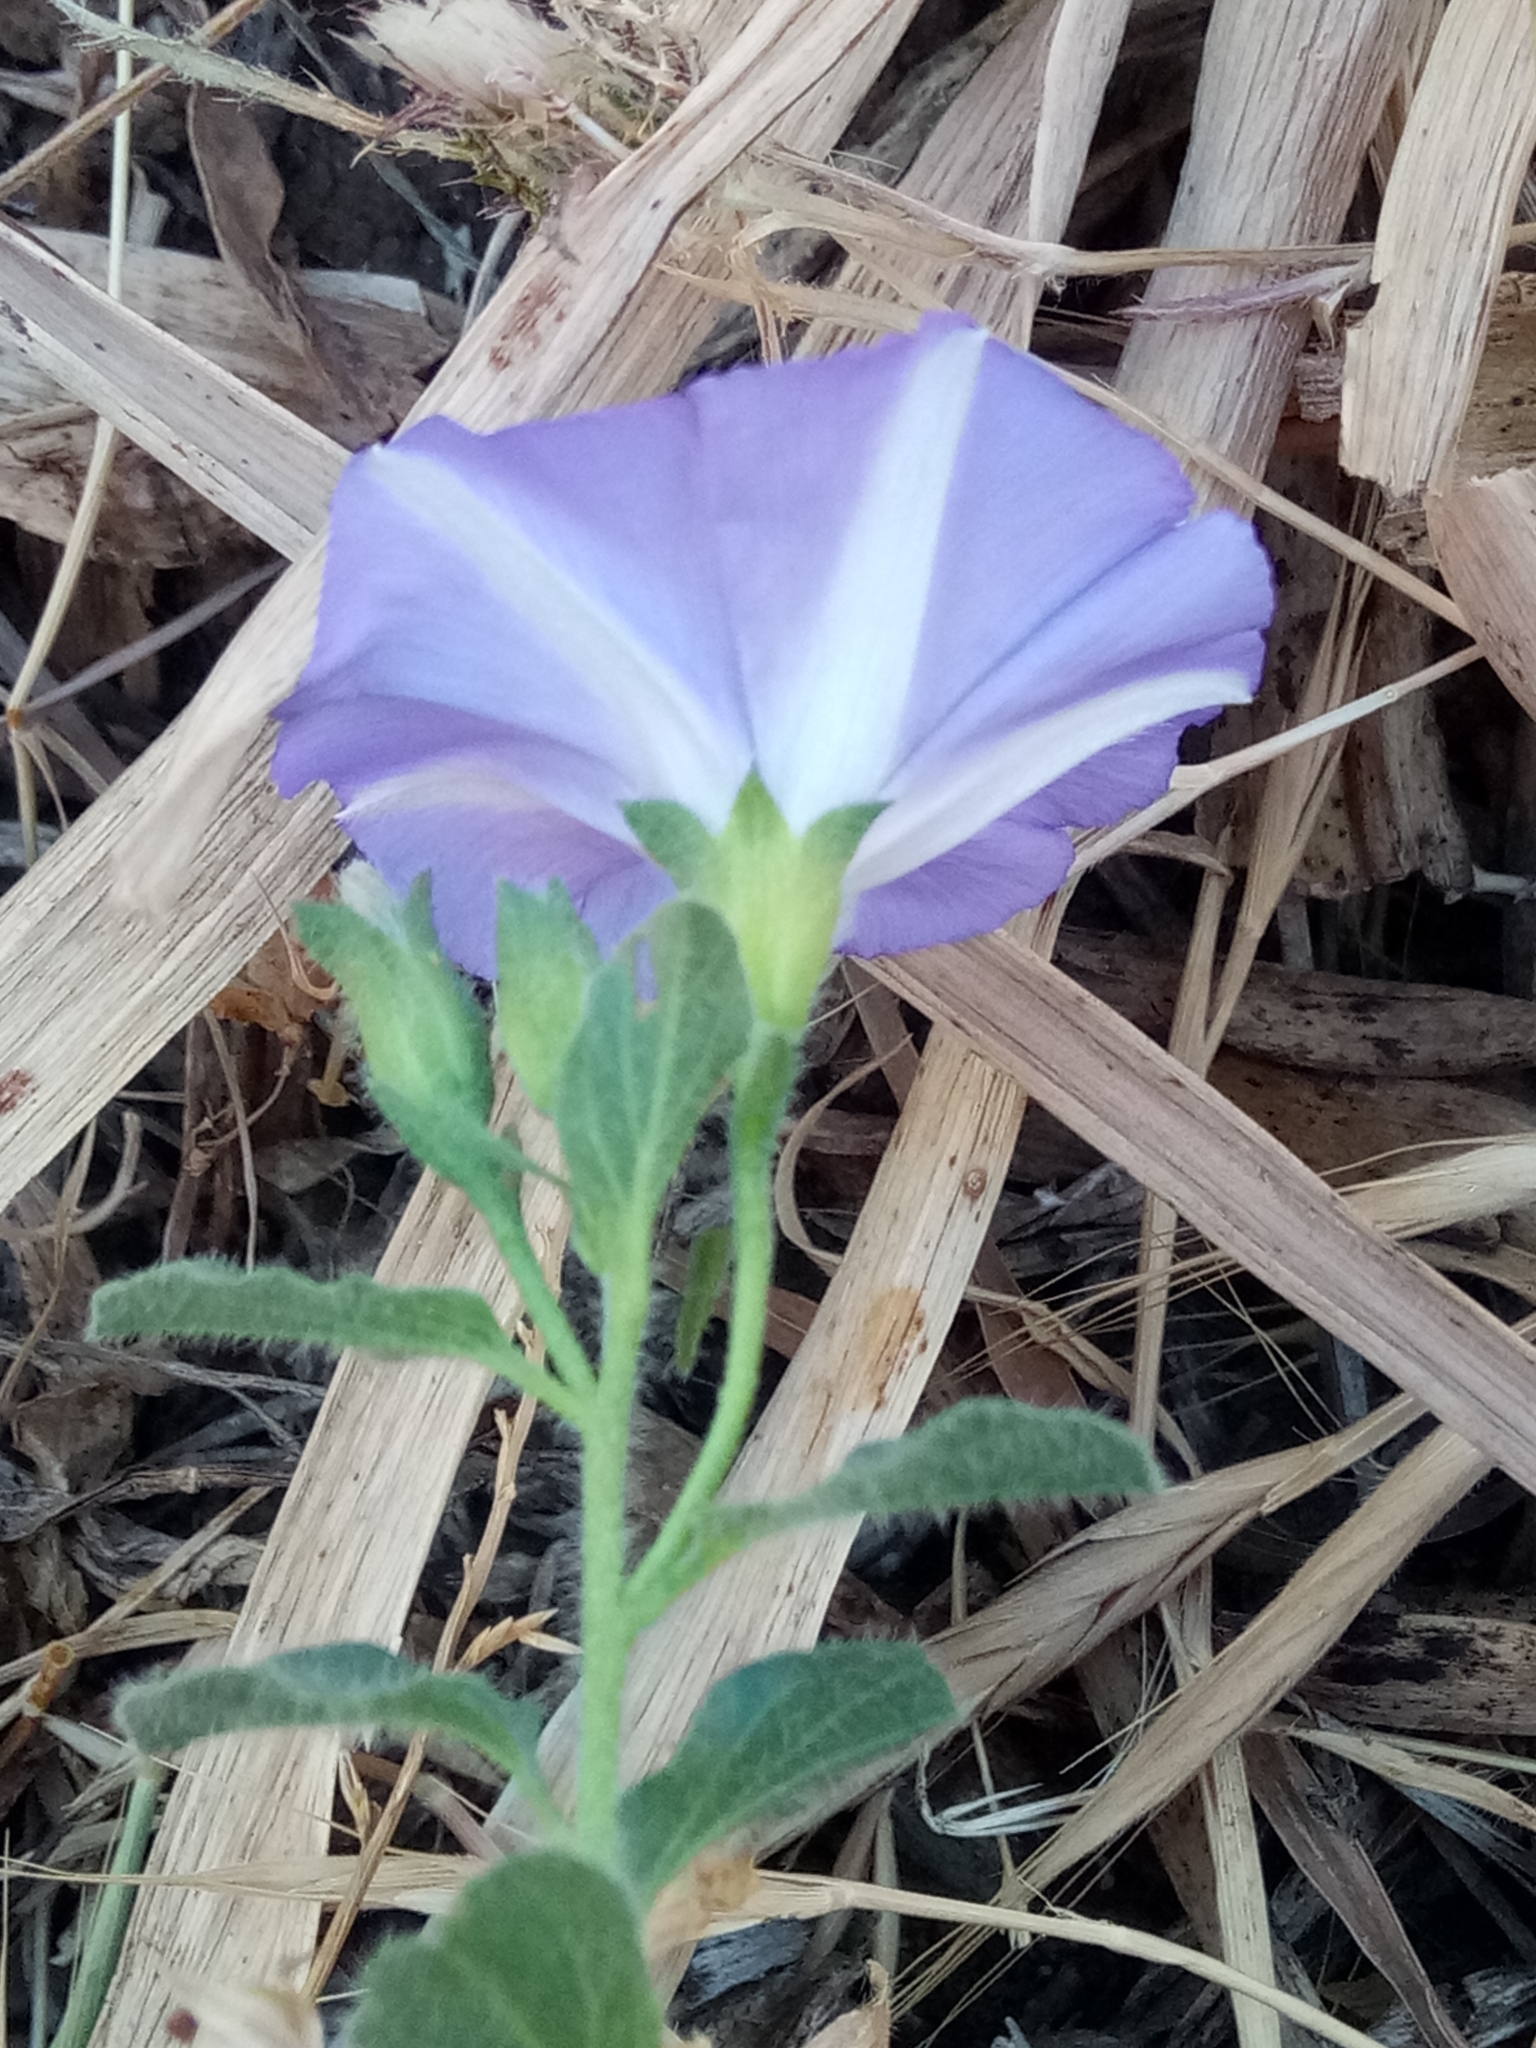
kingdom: Plantae
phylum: Tracheophyta
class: Magnoliopsida
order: Solanales
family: Convolvulaceae
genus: Convolvulus
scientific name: Convolvulus sabatius
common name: Ground blue-convolvulus
